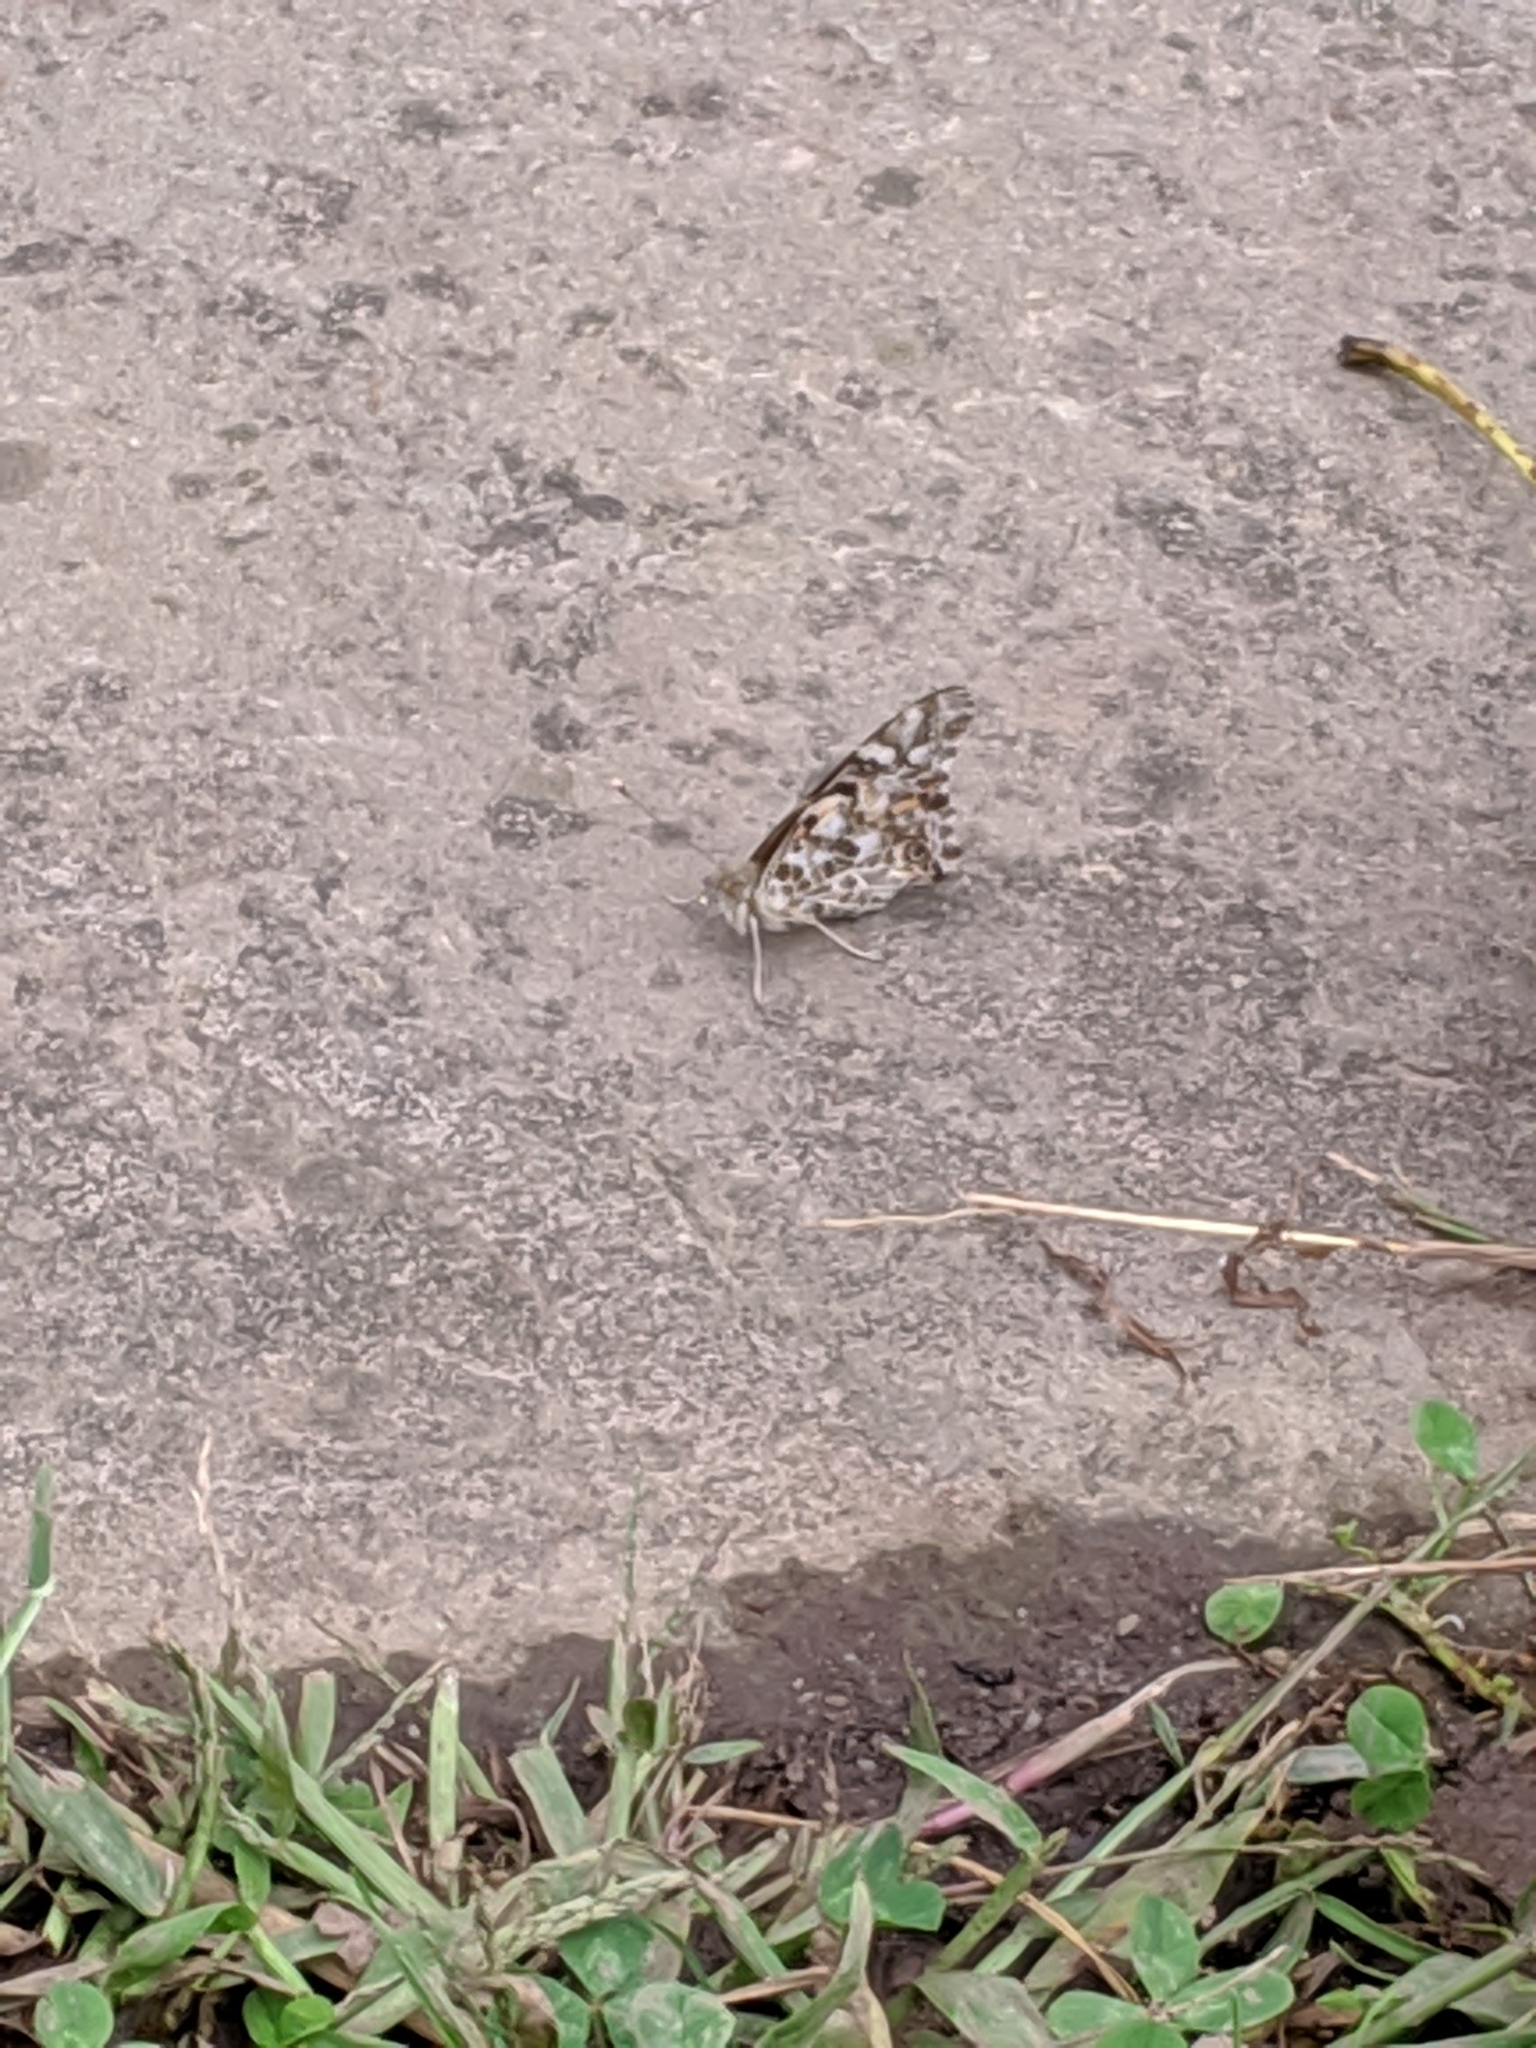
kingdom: Animalia
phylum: Arthropoda
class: Insecta
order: Lepidoptera
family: Nymphalidae
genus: Vanessa
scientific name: Vanessa cardui
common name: Painted lady
